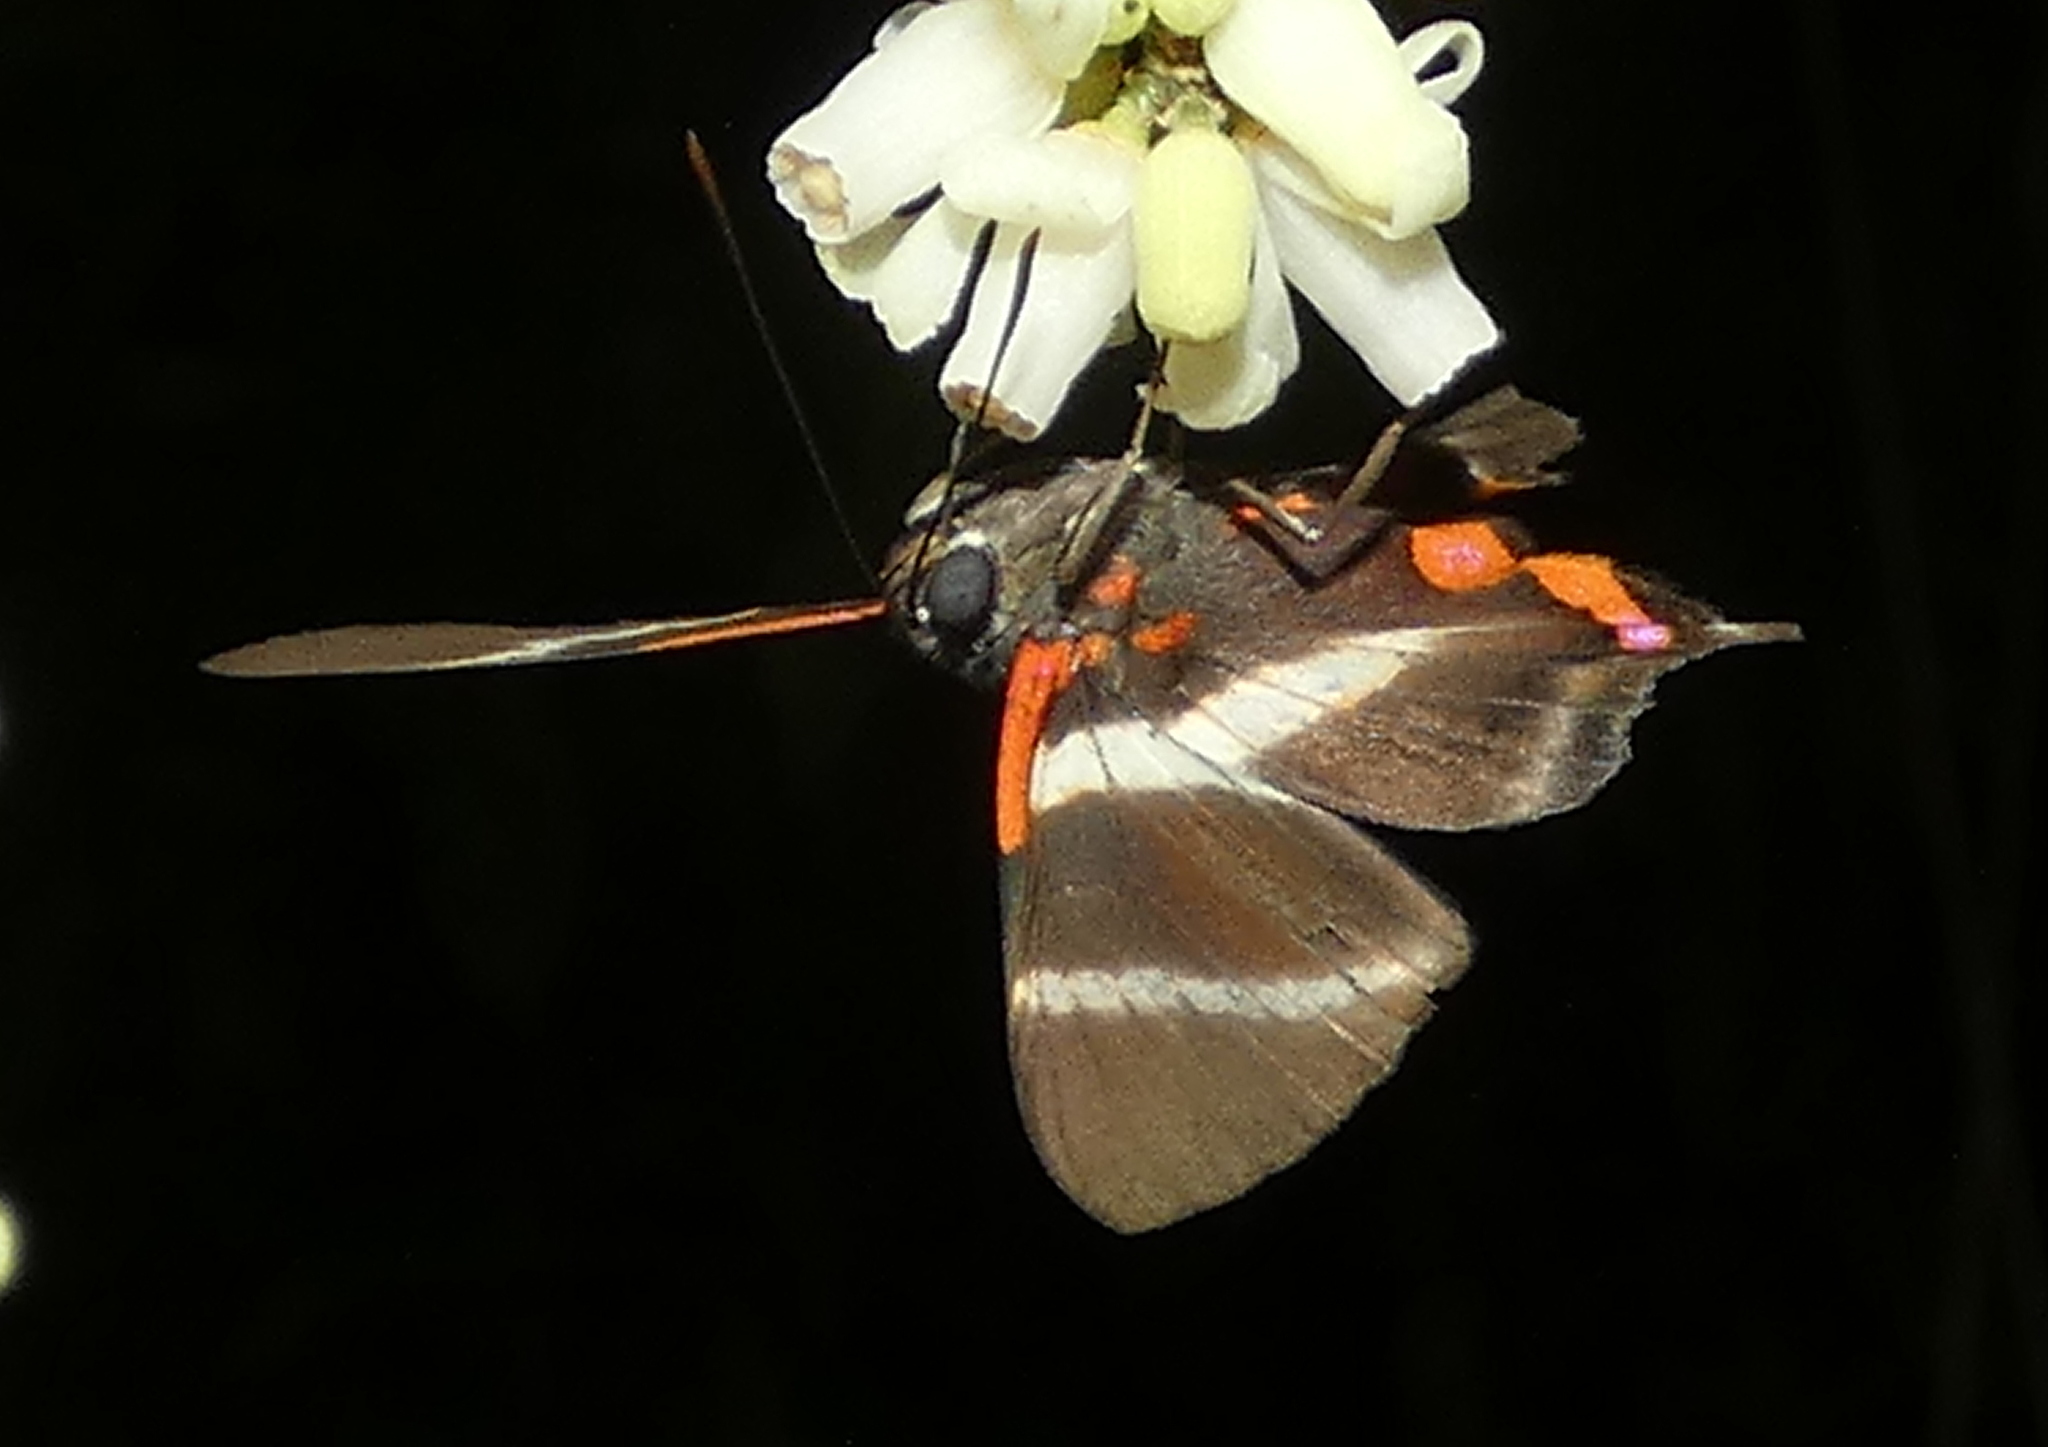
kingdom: Animalia
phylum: Arthropoda
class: Insecta
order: Lepidoptera
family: Riodinidae
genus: Rhetus
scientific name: Rhetus periander
